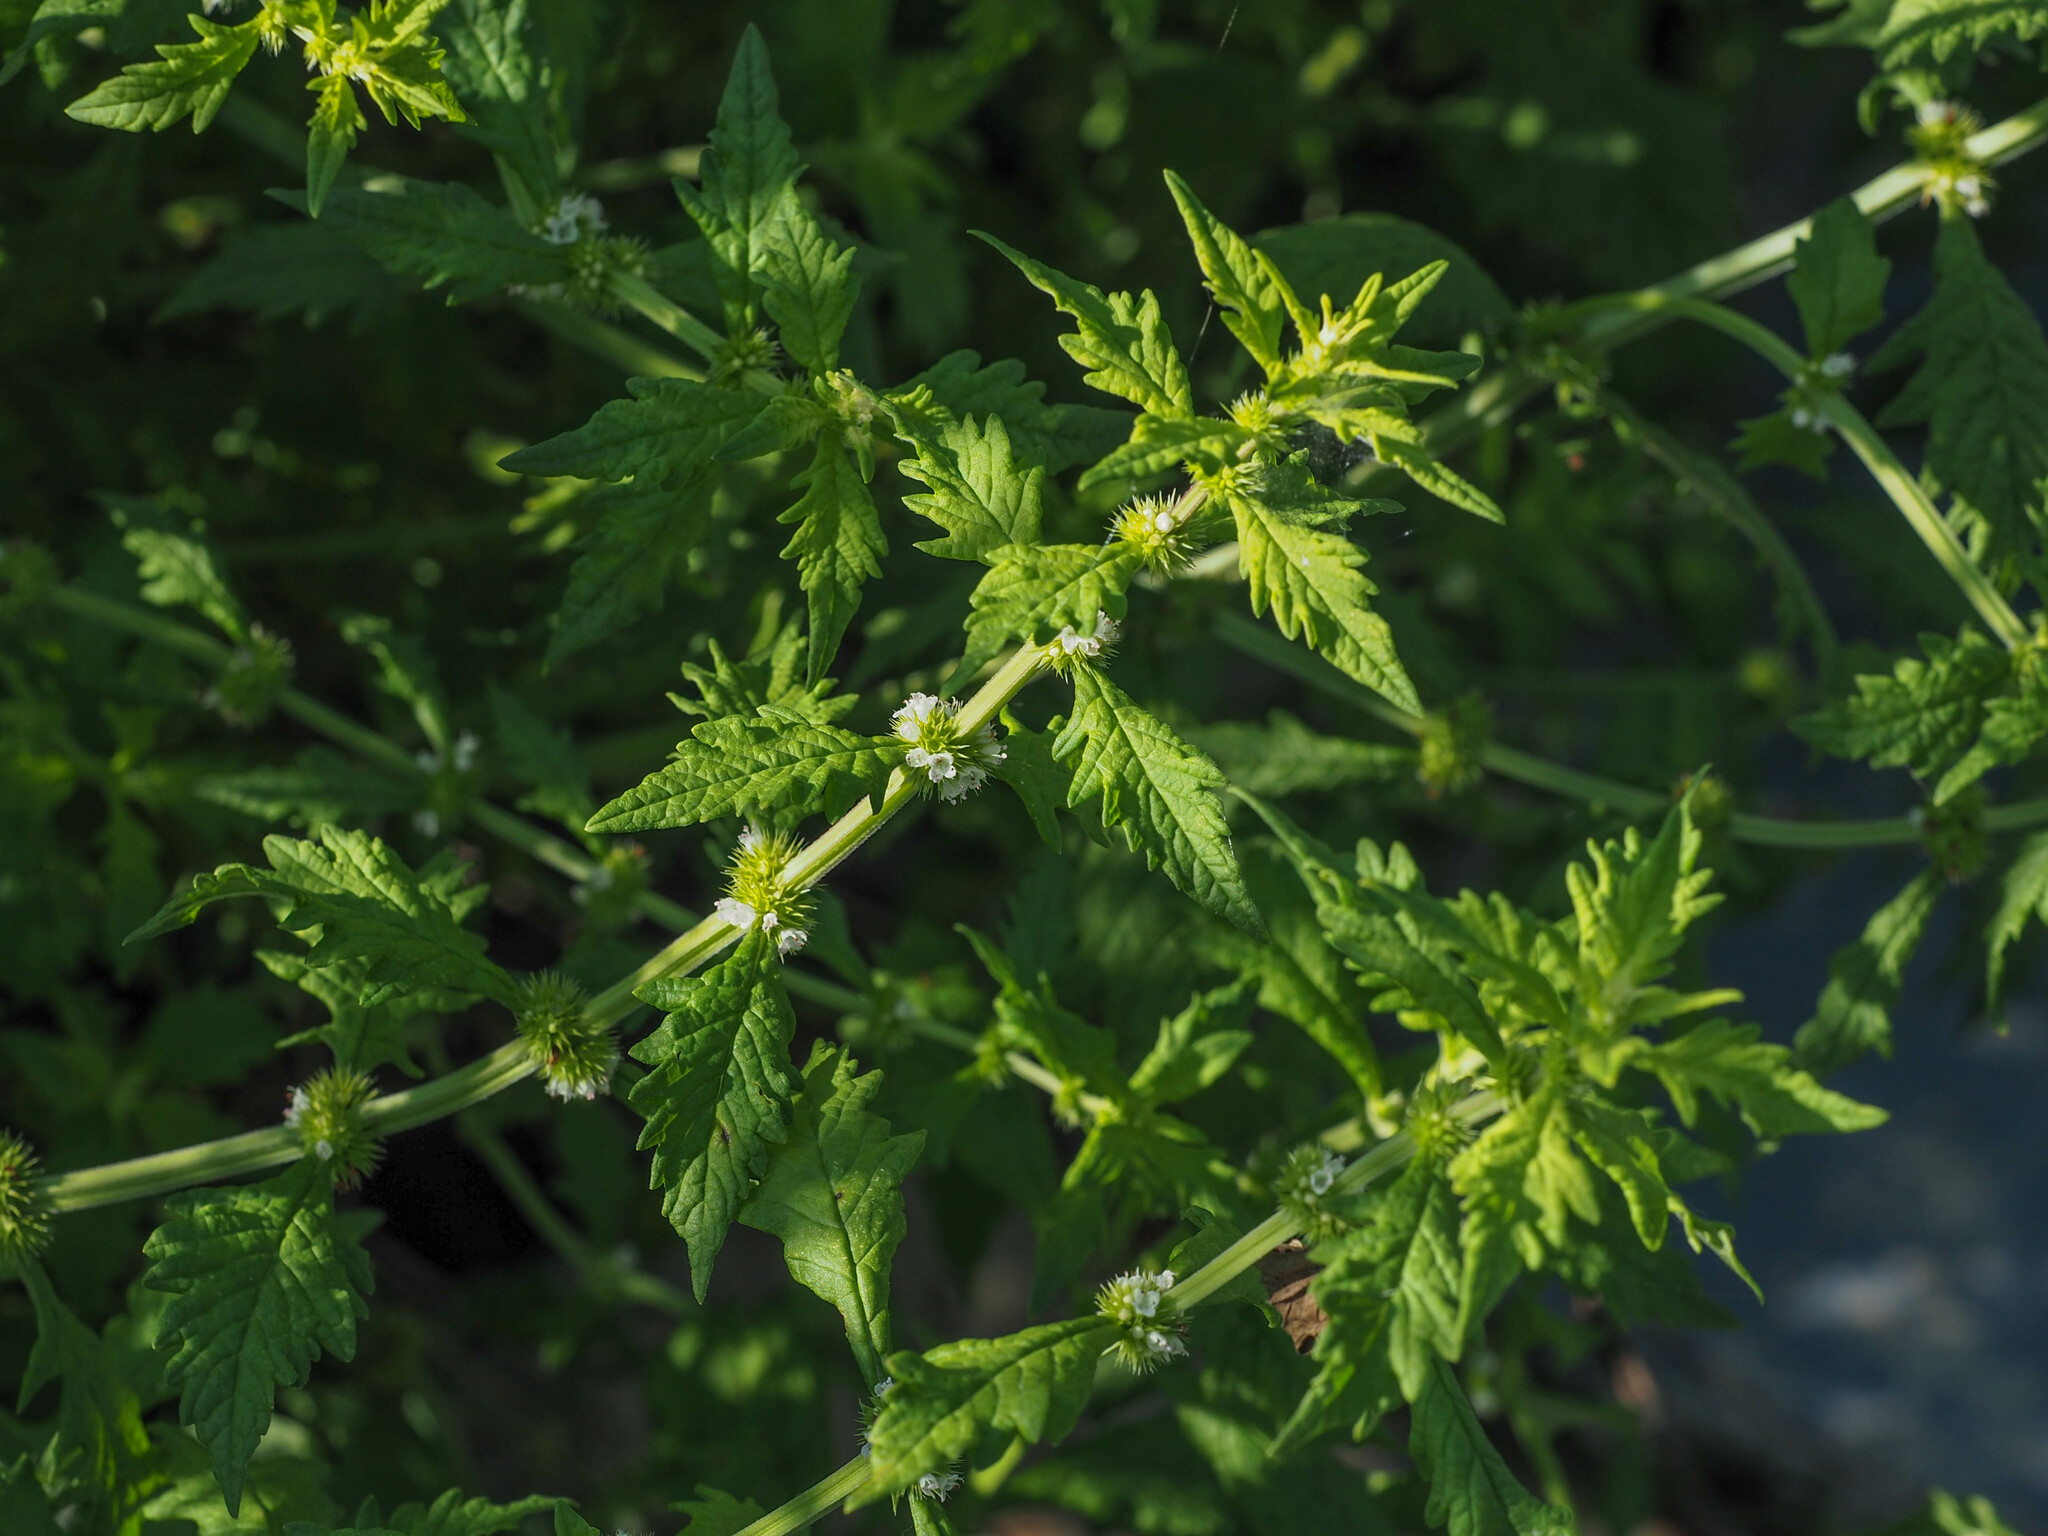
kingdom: Plantae
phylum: Tracheophyta
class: Magnoliopsida
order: Lamiales
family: Lamiaceae
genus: Lycopus
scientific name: Lycopus europaeus
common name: European bugleweed
